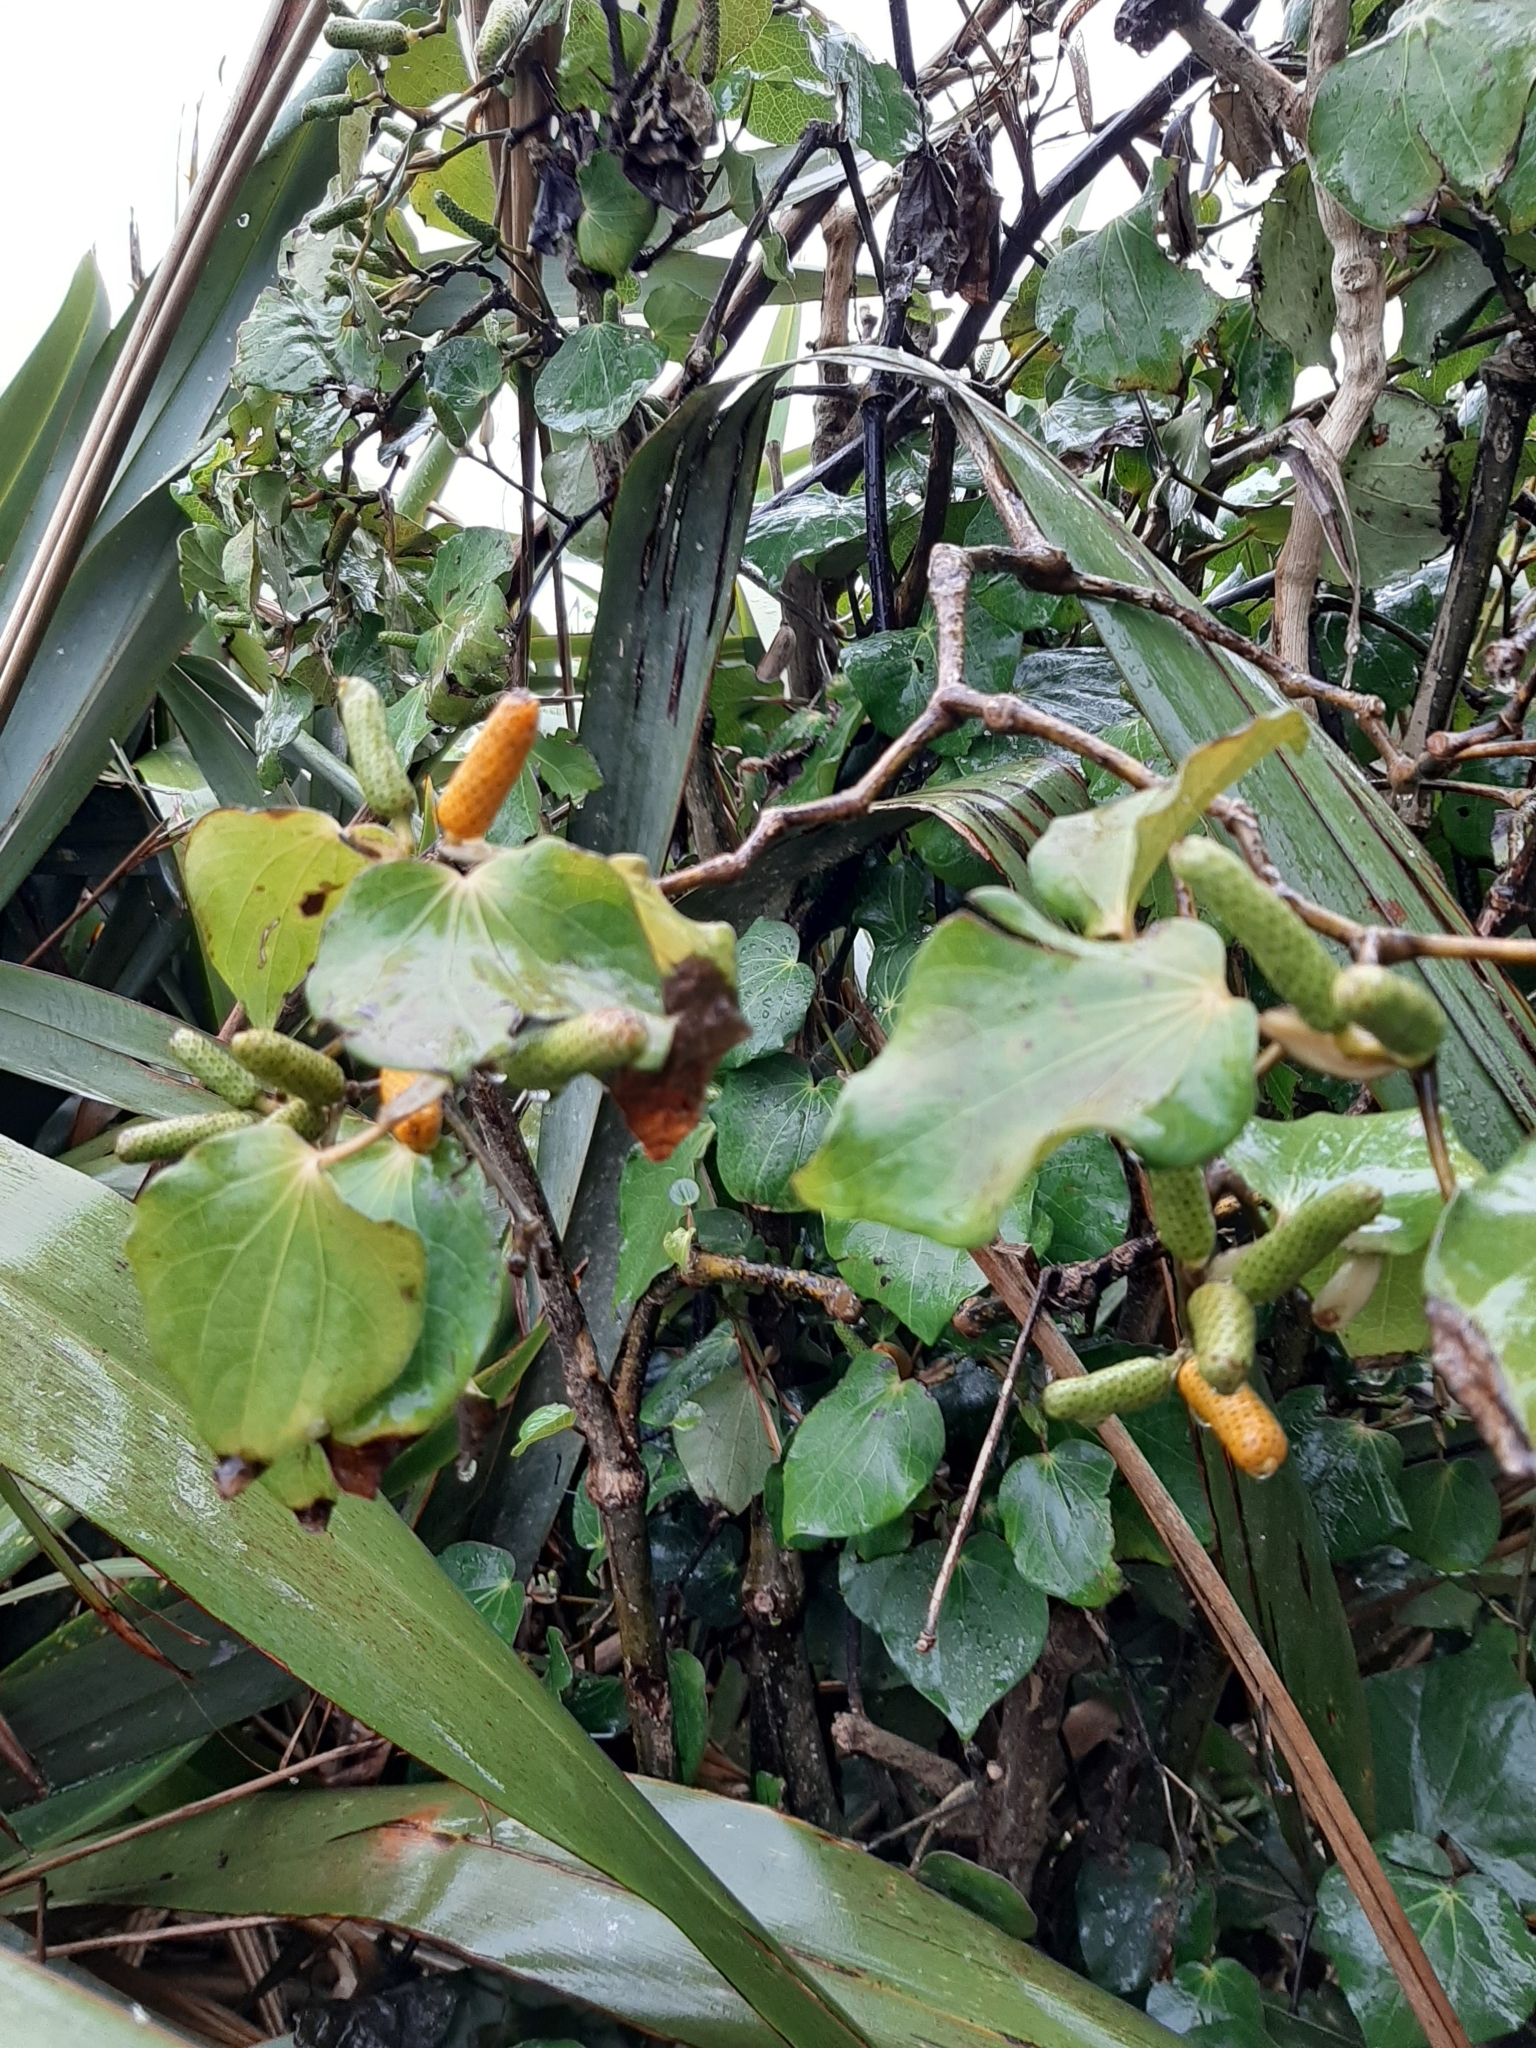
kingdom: Plantae
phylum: Tracheophyta
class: Magnoliopsida
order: Piperales
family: Piperaceae
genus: Macropiper
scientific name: Macropiper excelsum
